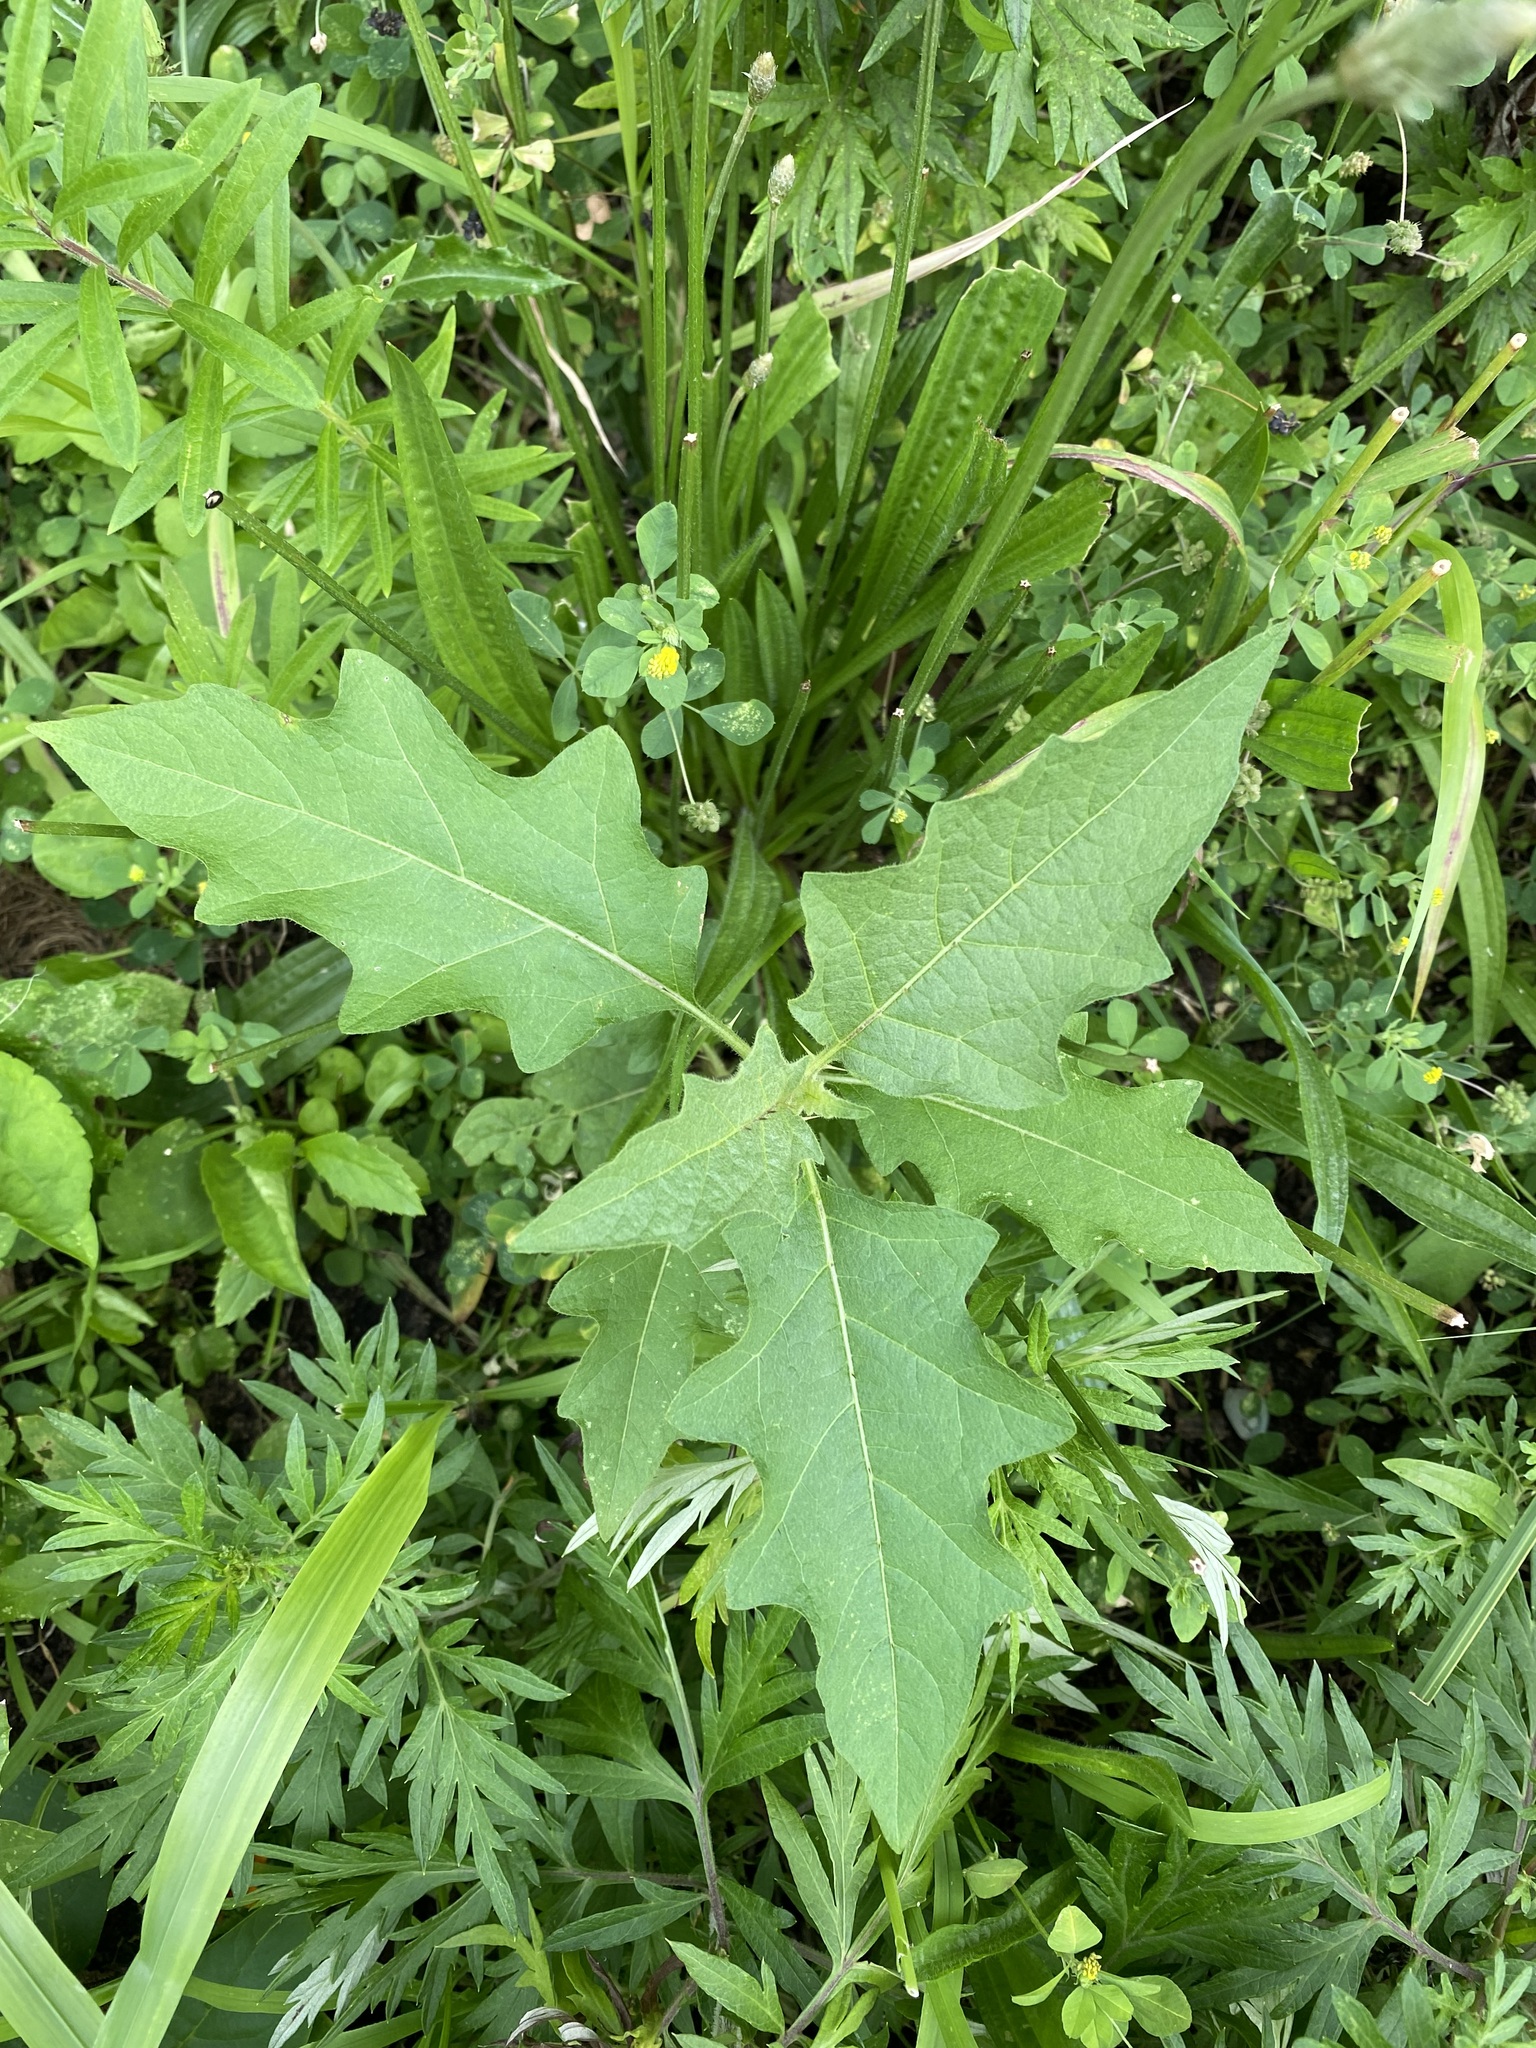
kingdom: Plantae
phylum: Tracheophyta
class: Magnoliopsida
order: Solanales
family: Solanaceae
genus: Solanum
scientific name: Solanum carolinense
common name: Horse-nettle
